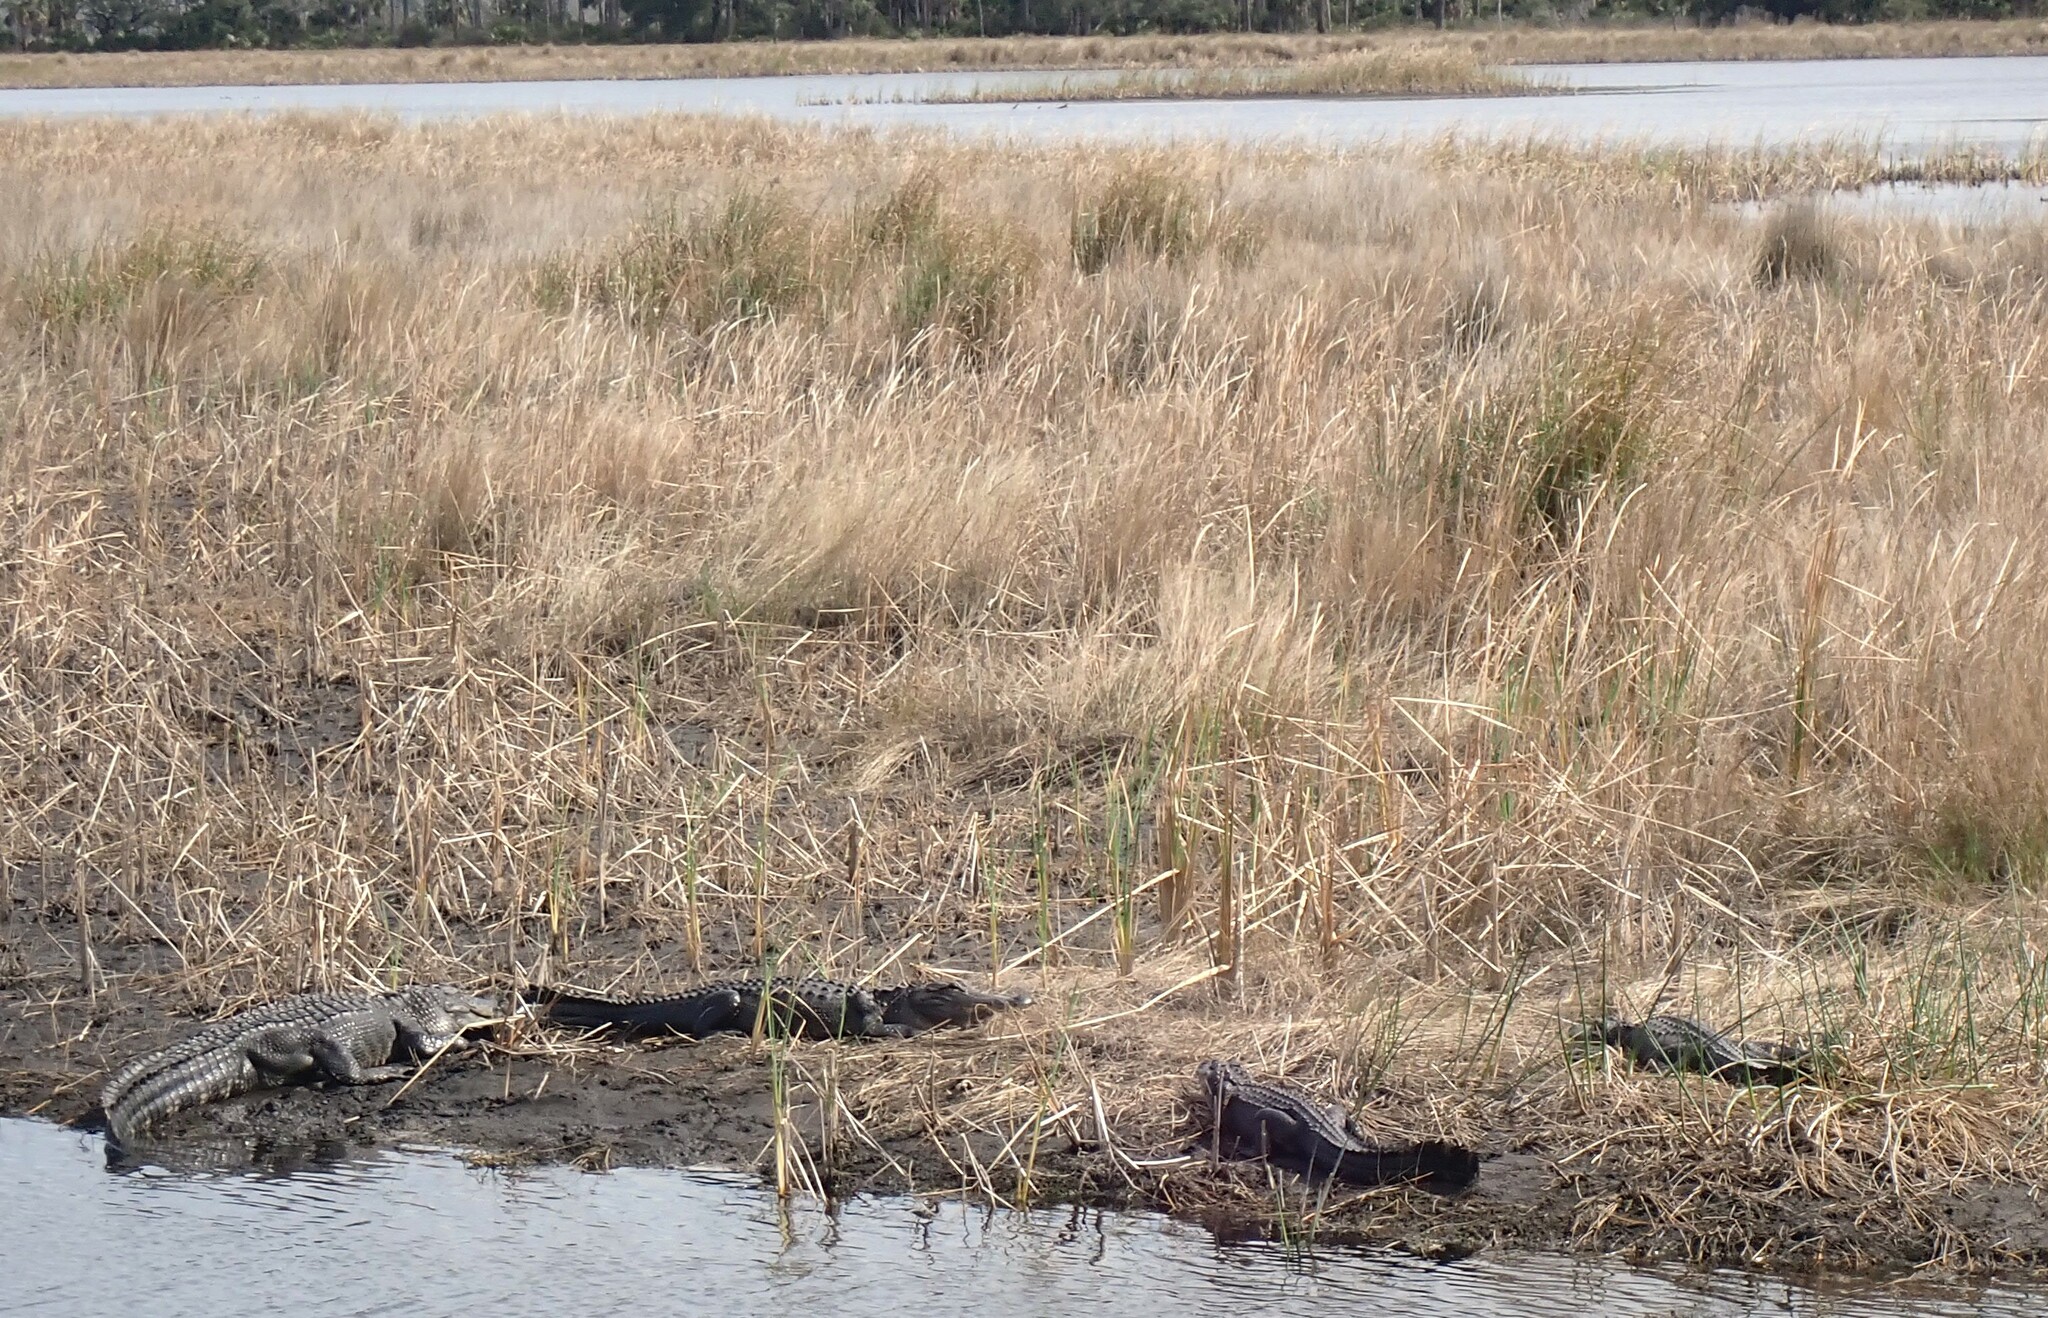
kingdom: Animalia
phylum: Chordata
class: Crocodylia
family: Alligatoridae
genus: Alligator
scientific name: Alligator mississippiensis
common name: American alligator
